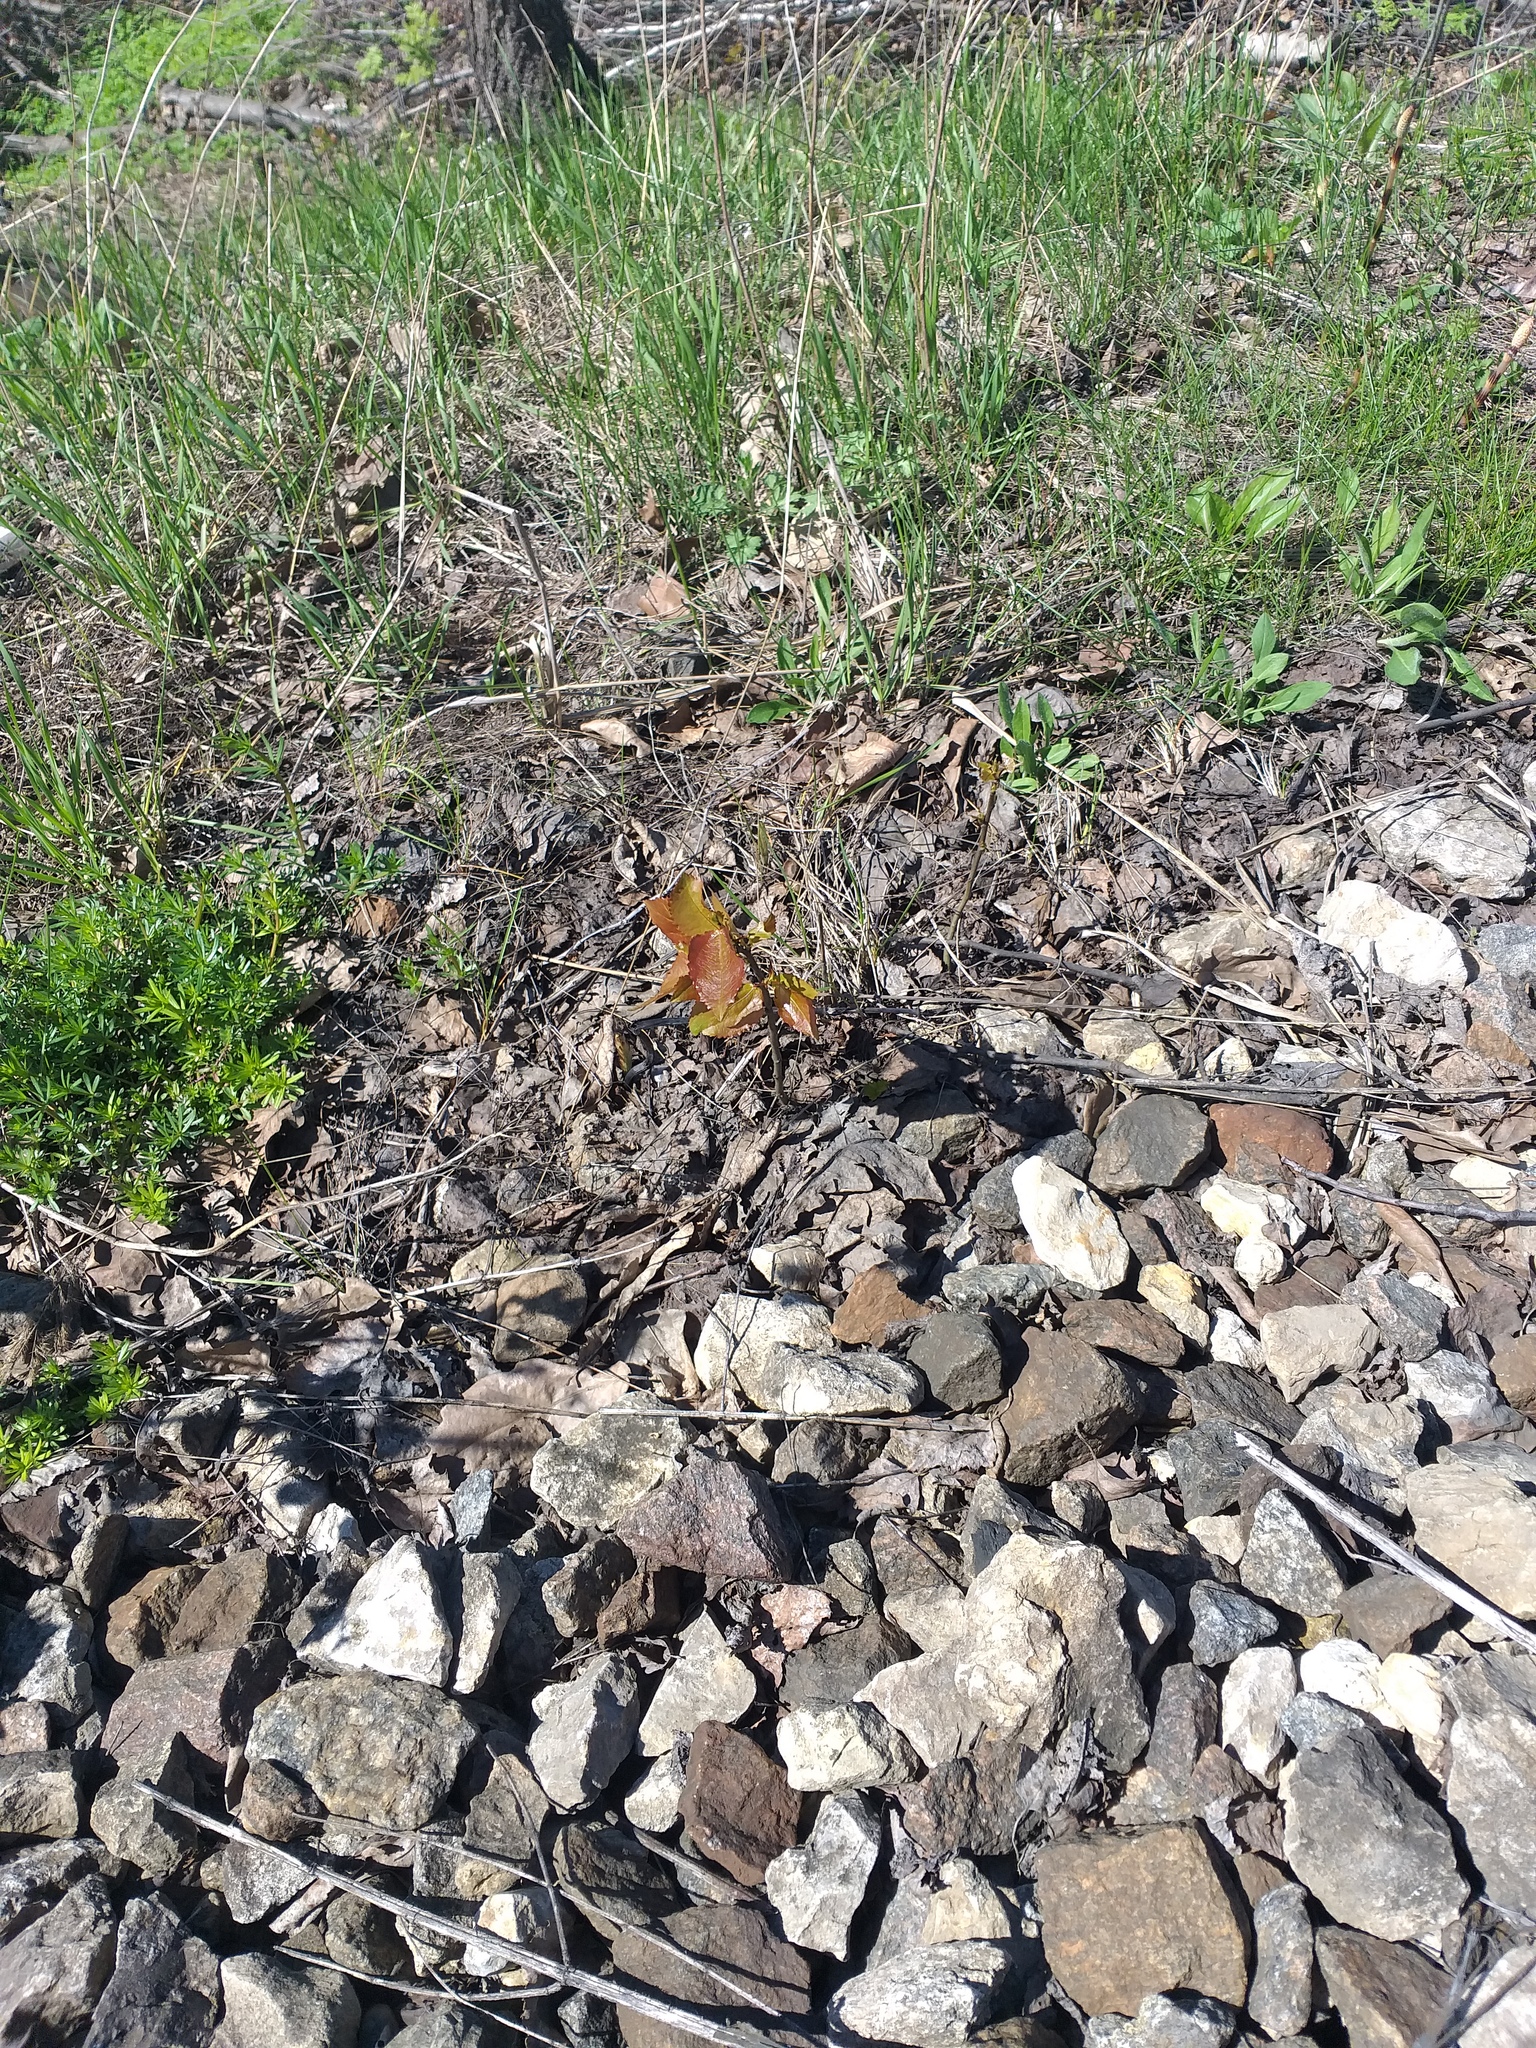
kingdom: Plantae
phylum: Tracheophyta
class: Magnoliopsida
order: Malpighiales
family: Salicaceae
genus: Populus
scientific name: Populus tremula
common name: European aspen
